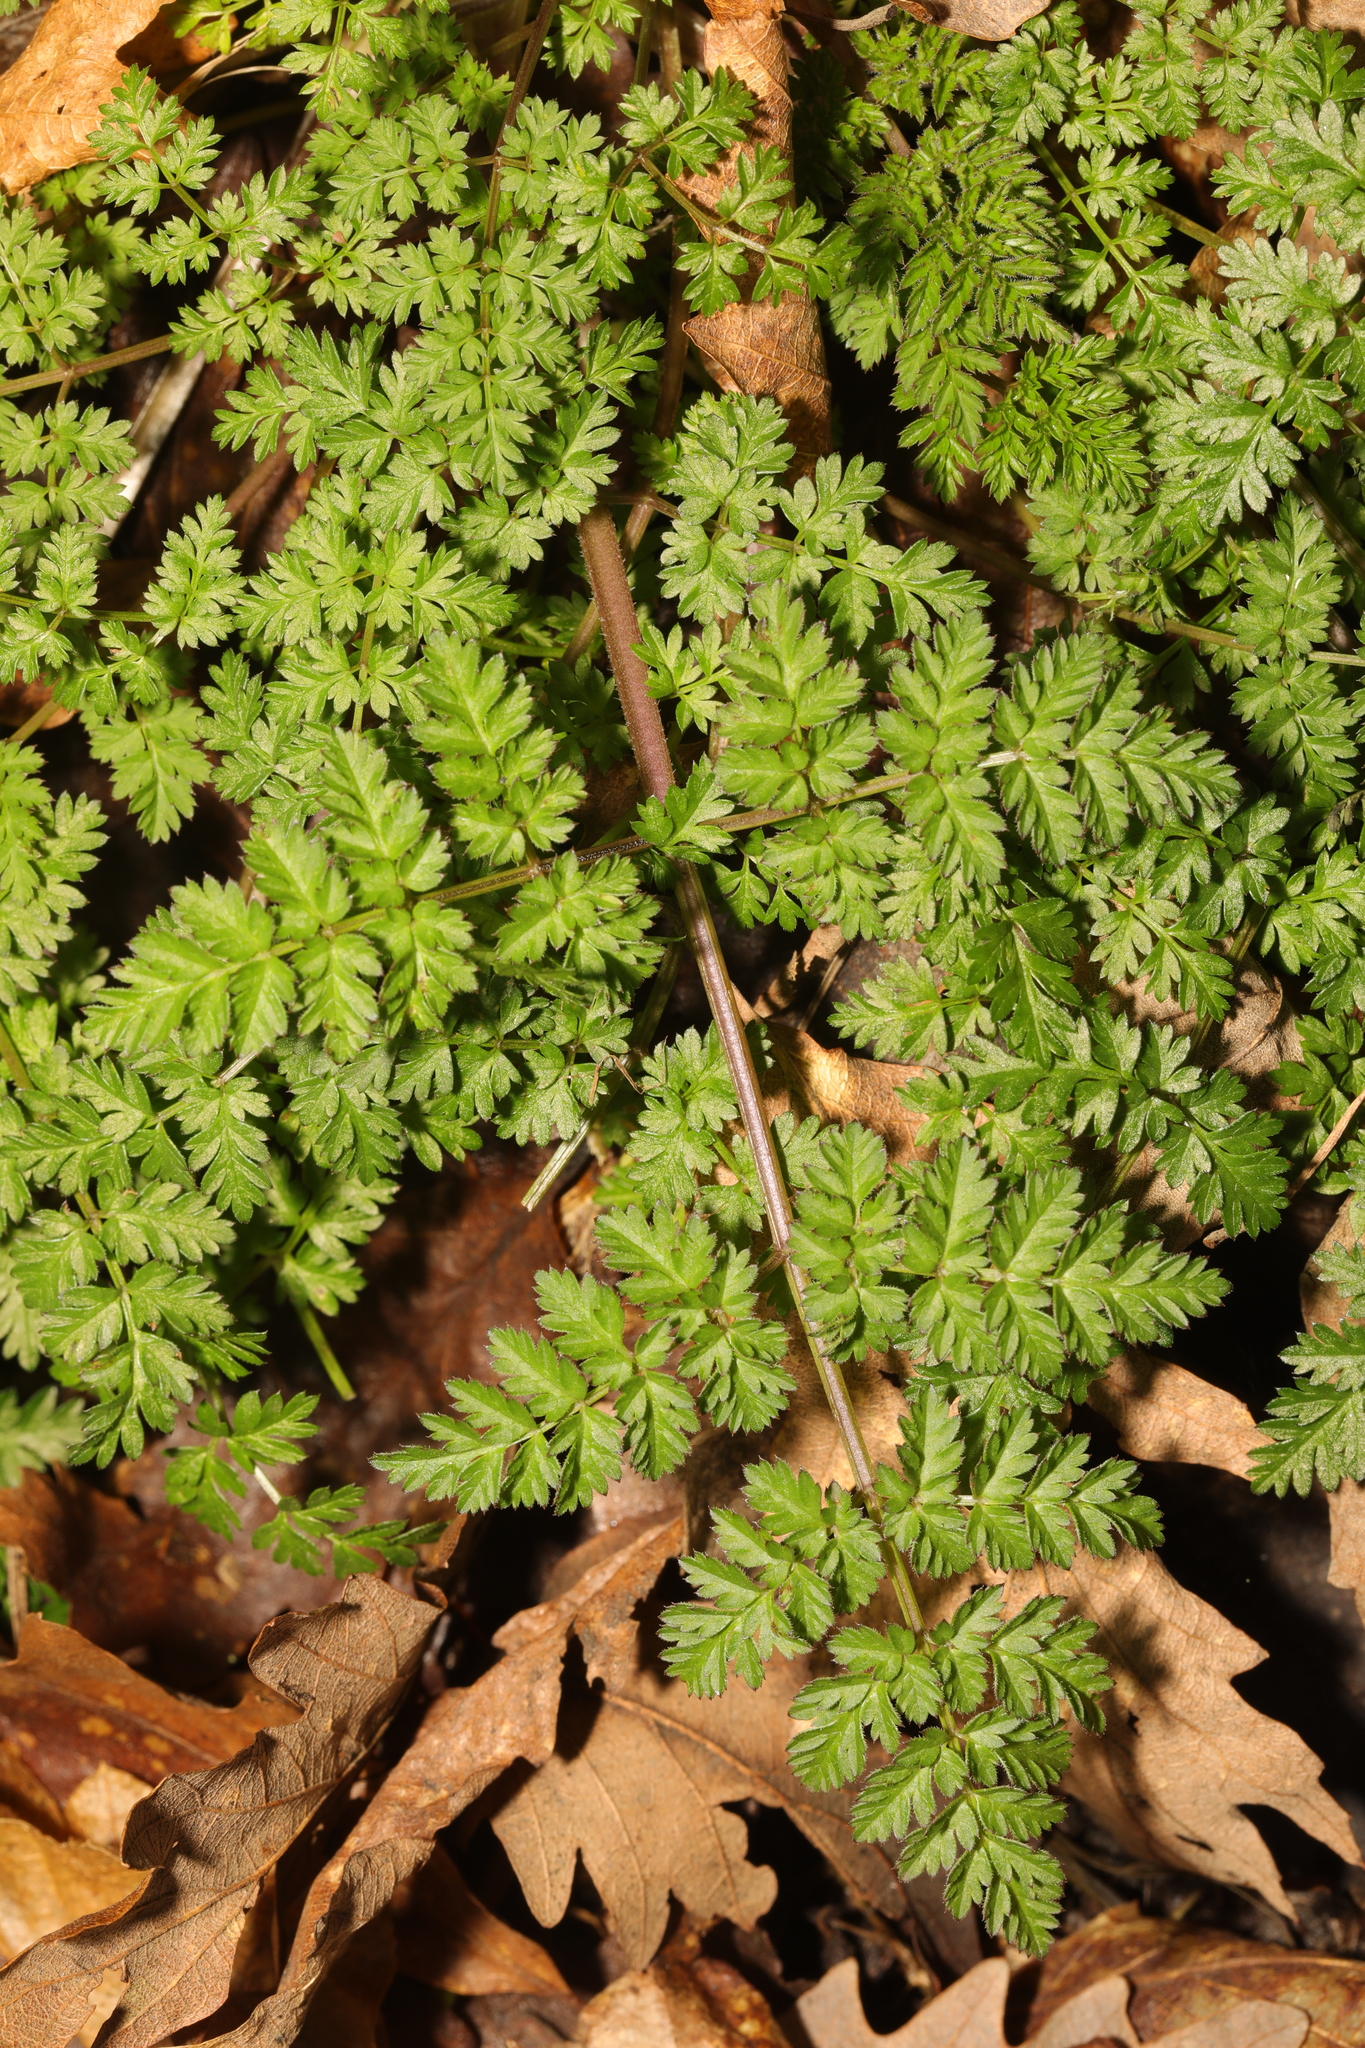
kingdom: Plantae
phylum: Tracheophyta
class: Magnoliopsida
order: Apiales
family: Apiaceae
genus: Anthriscus
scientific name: Anthriscus sylvestris
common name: Cow parsley
